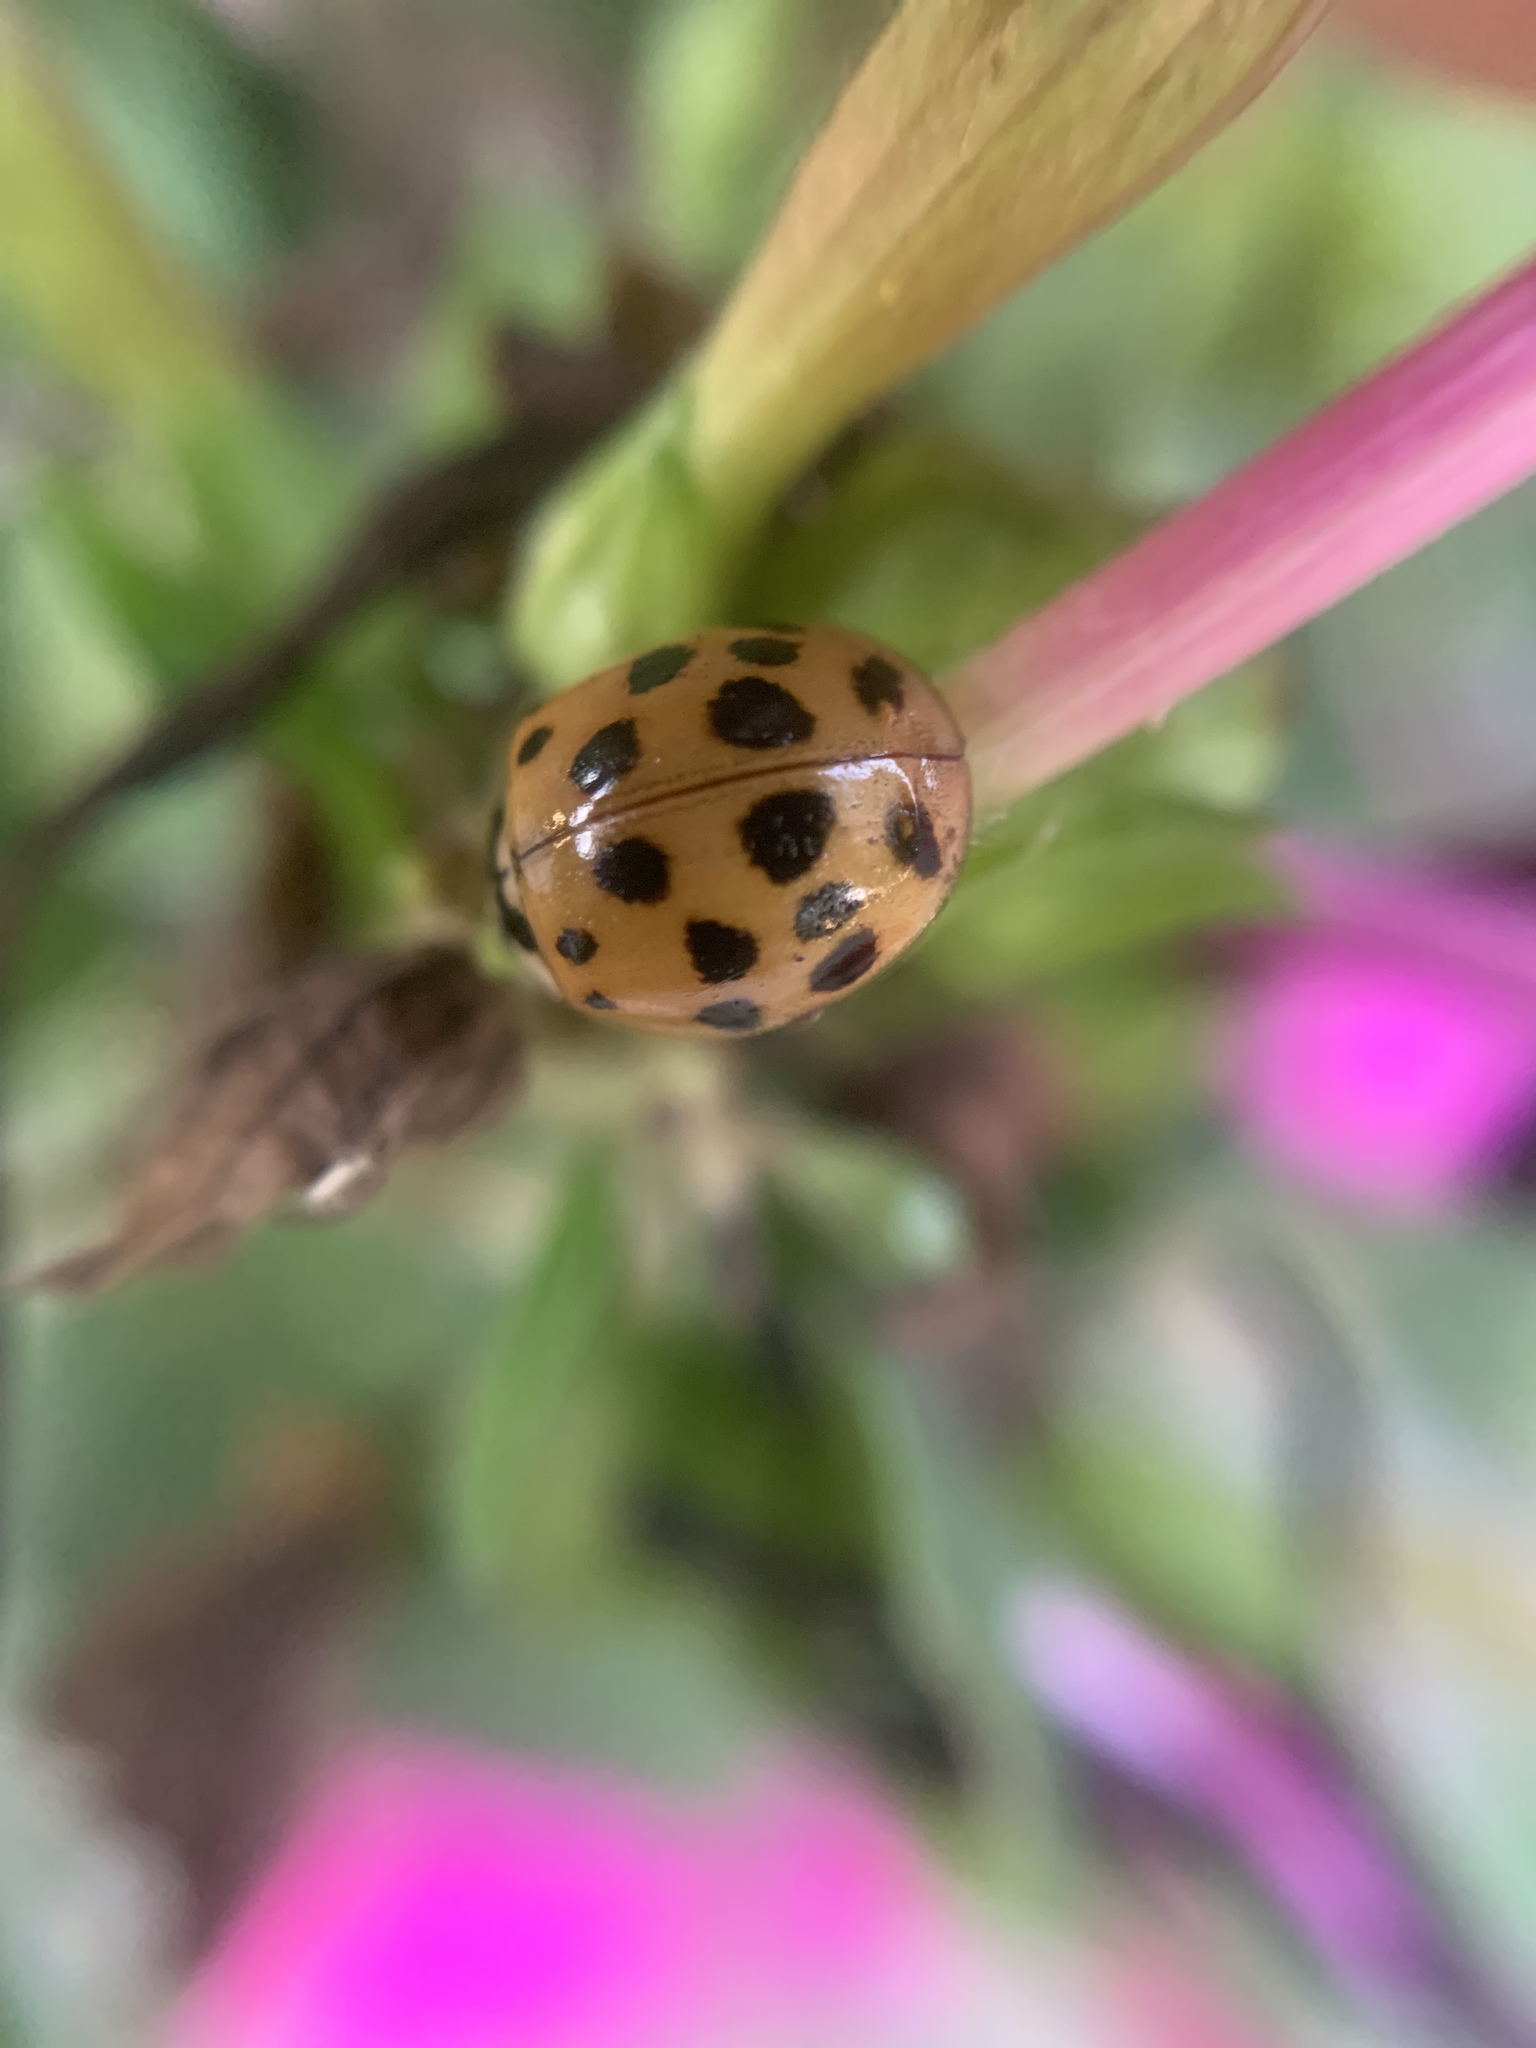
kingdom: Animalia
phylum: Arthropoda
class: Insecta
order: Coleoptera
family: Coccinellidae
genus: Harmonia
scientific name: Harmonia axyridis
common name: Harlequin ladybird
